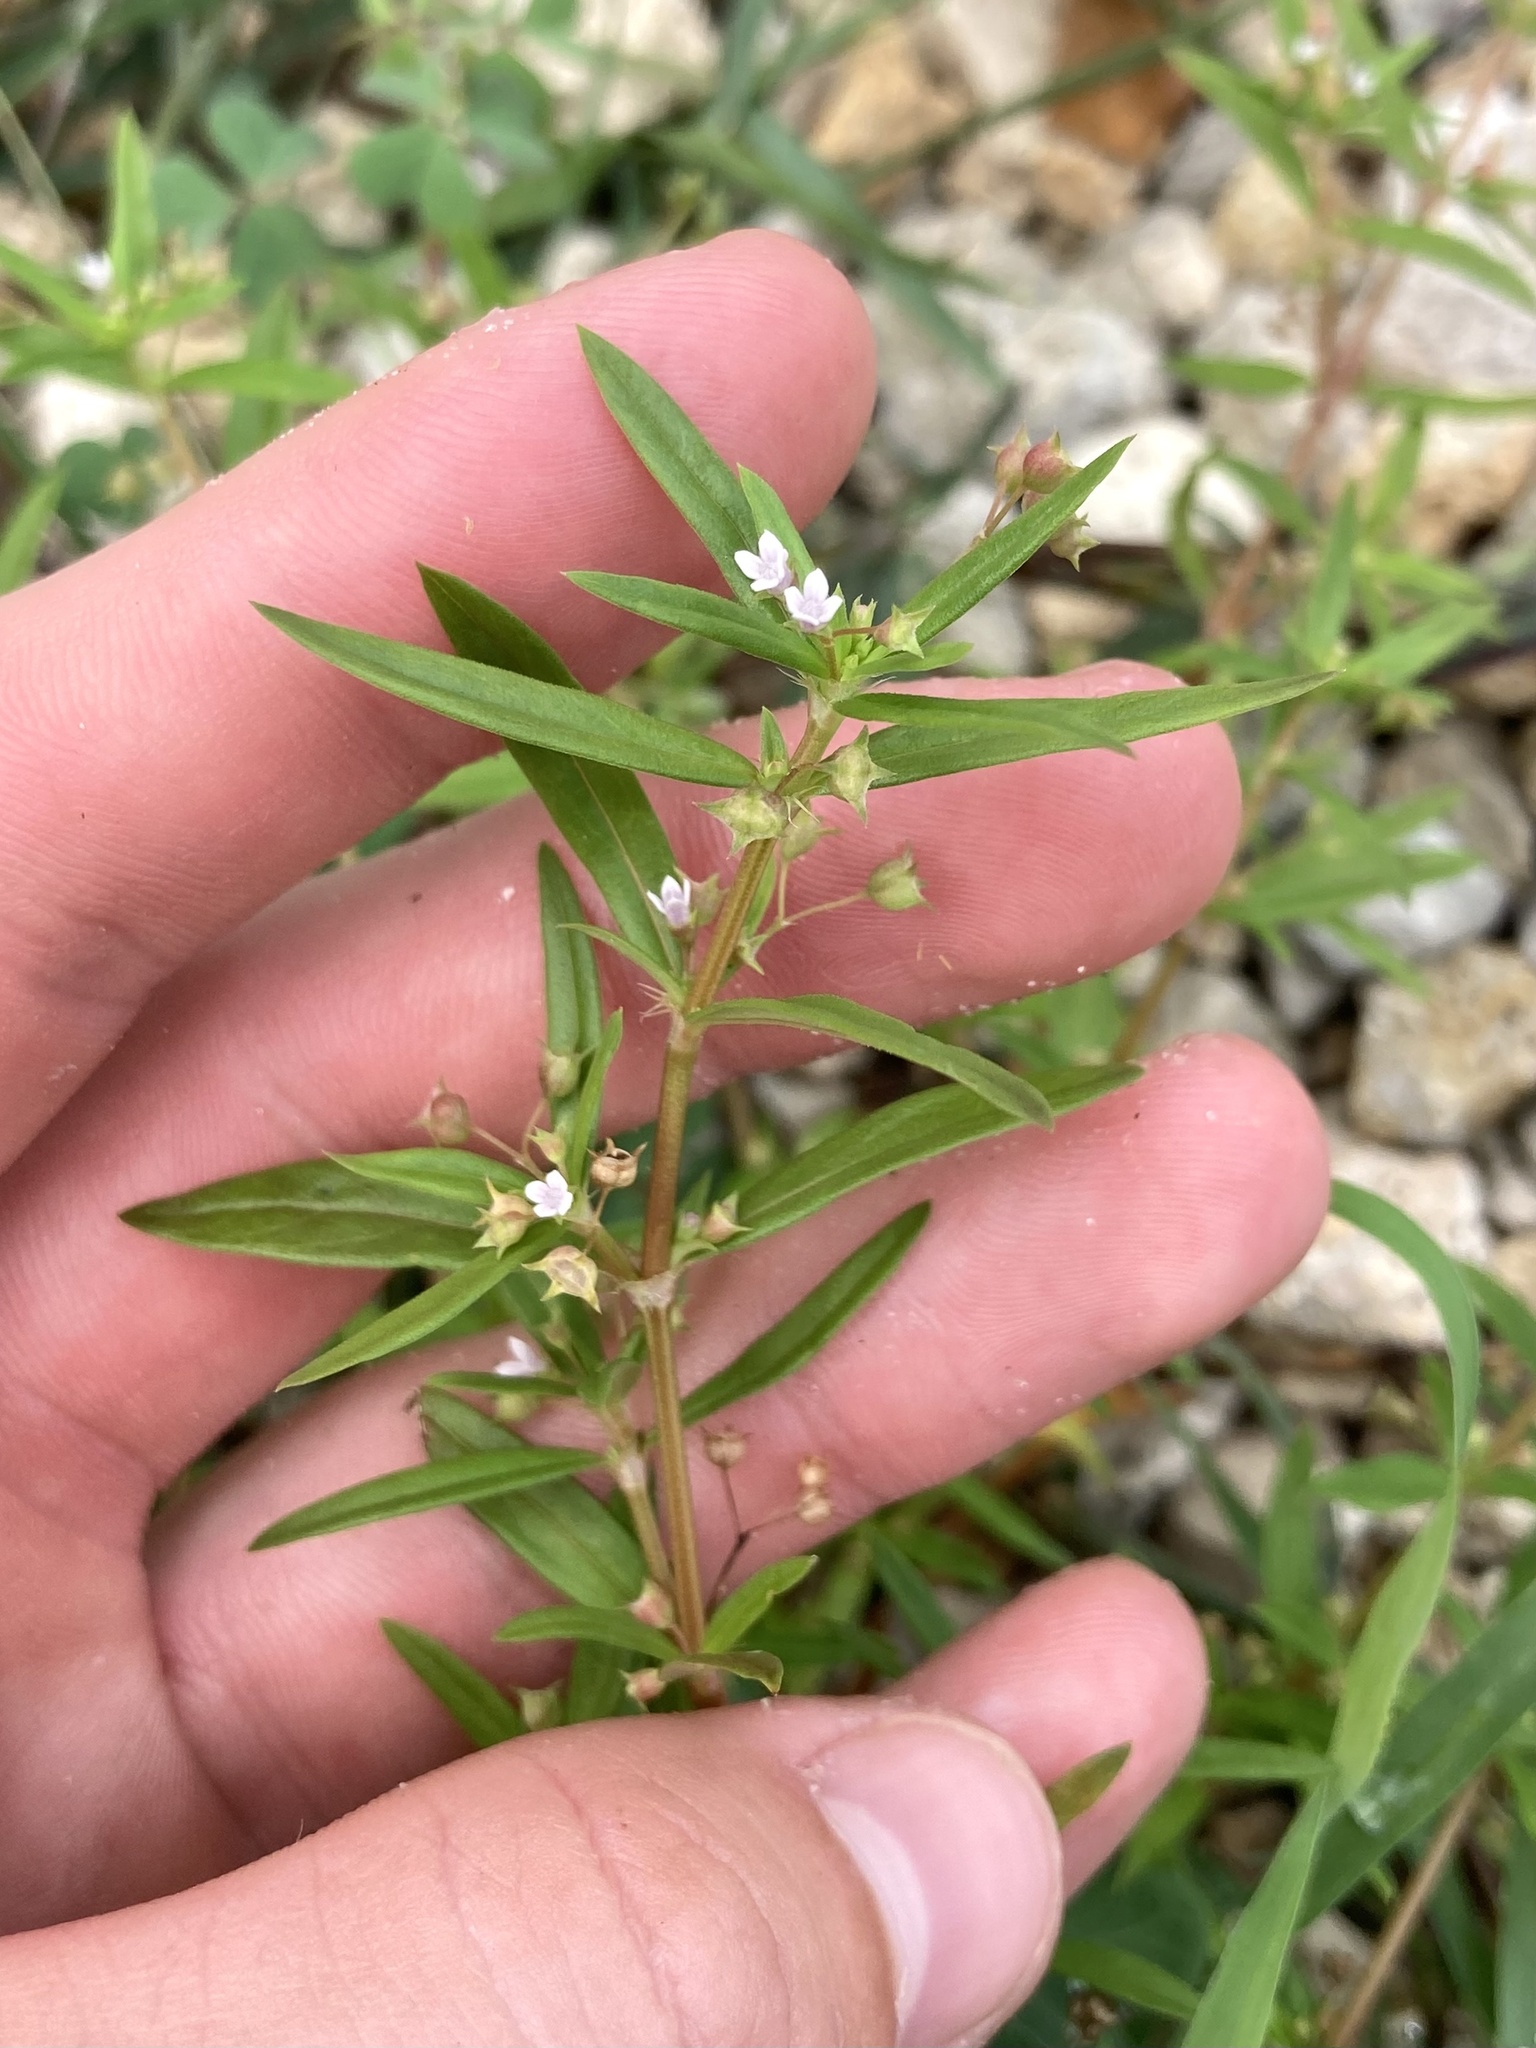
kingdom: Plantae
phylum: Tracheophyta
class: Magnoliopsida
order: Gentianales
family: Rubiaceae
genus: Oldenlandia
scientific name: Oldenlandia corymbosa
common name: Flat-top mille graines
